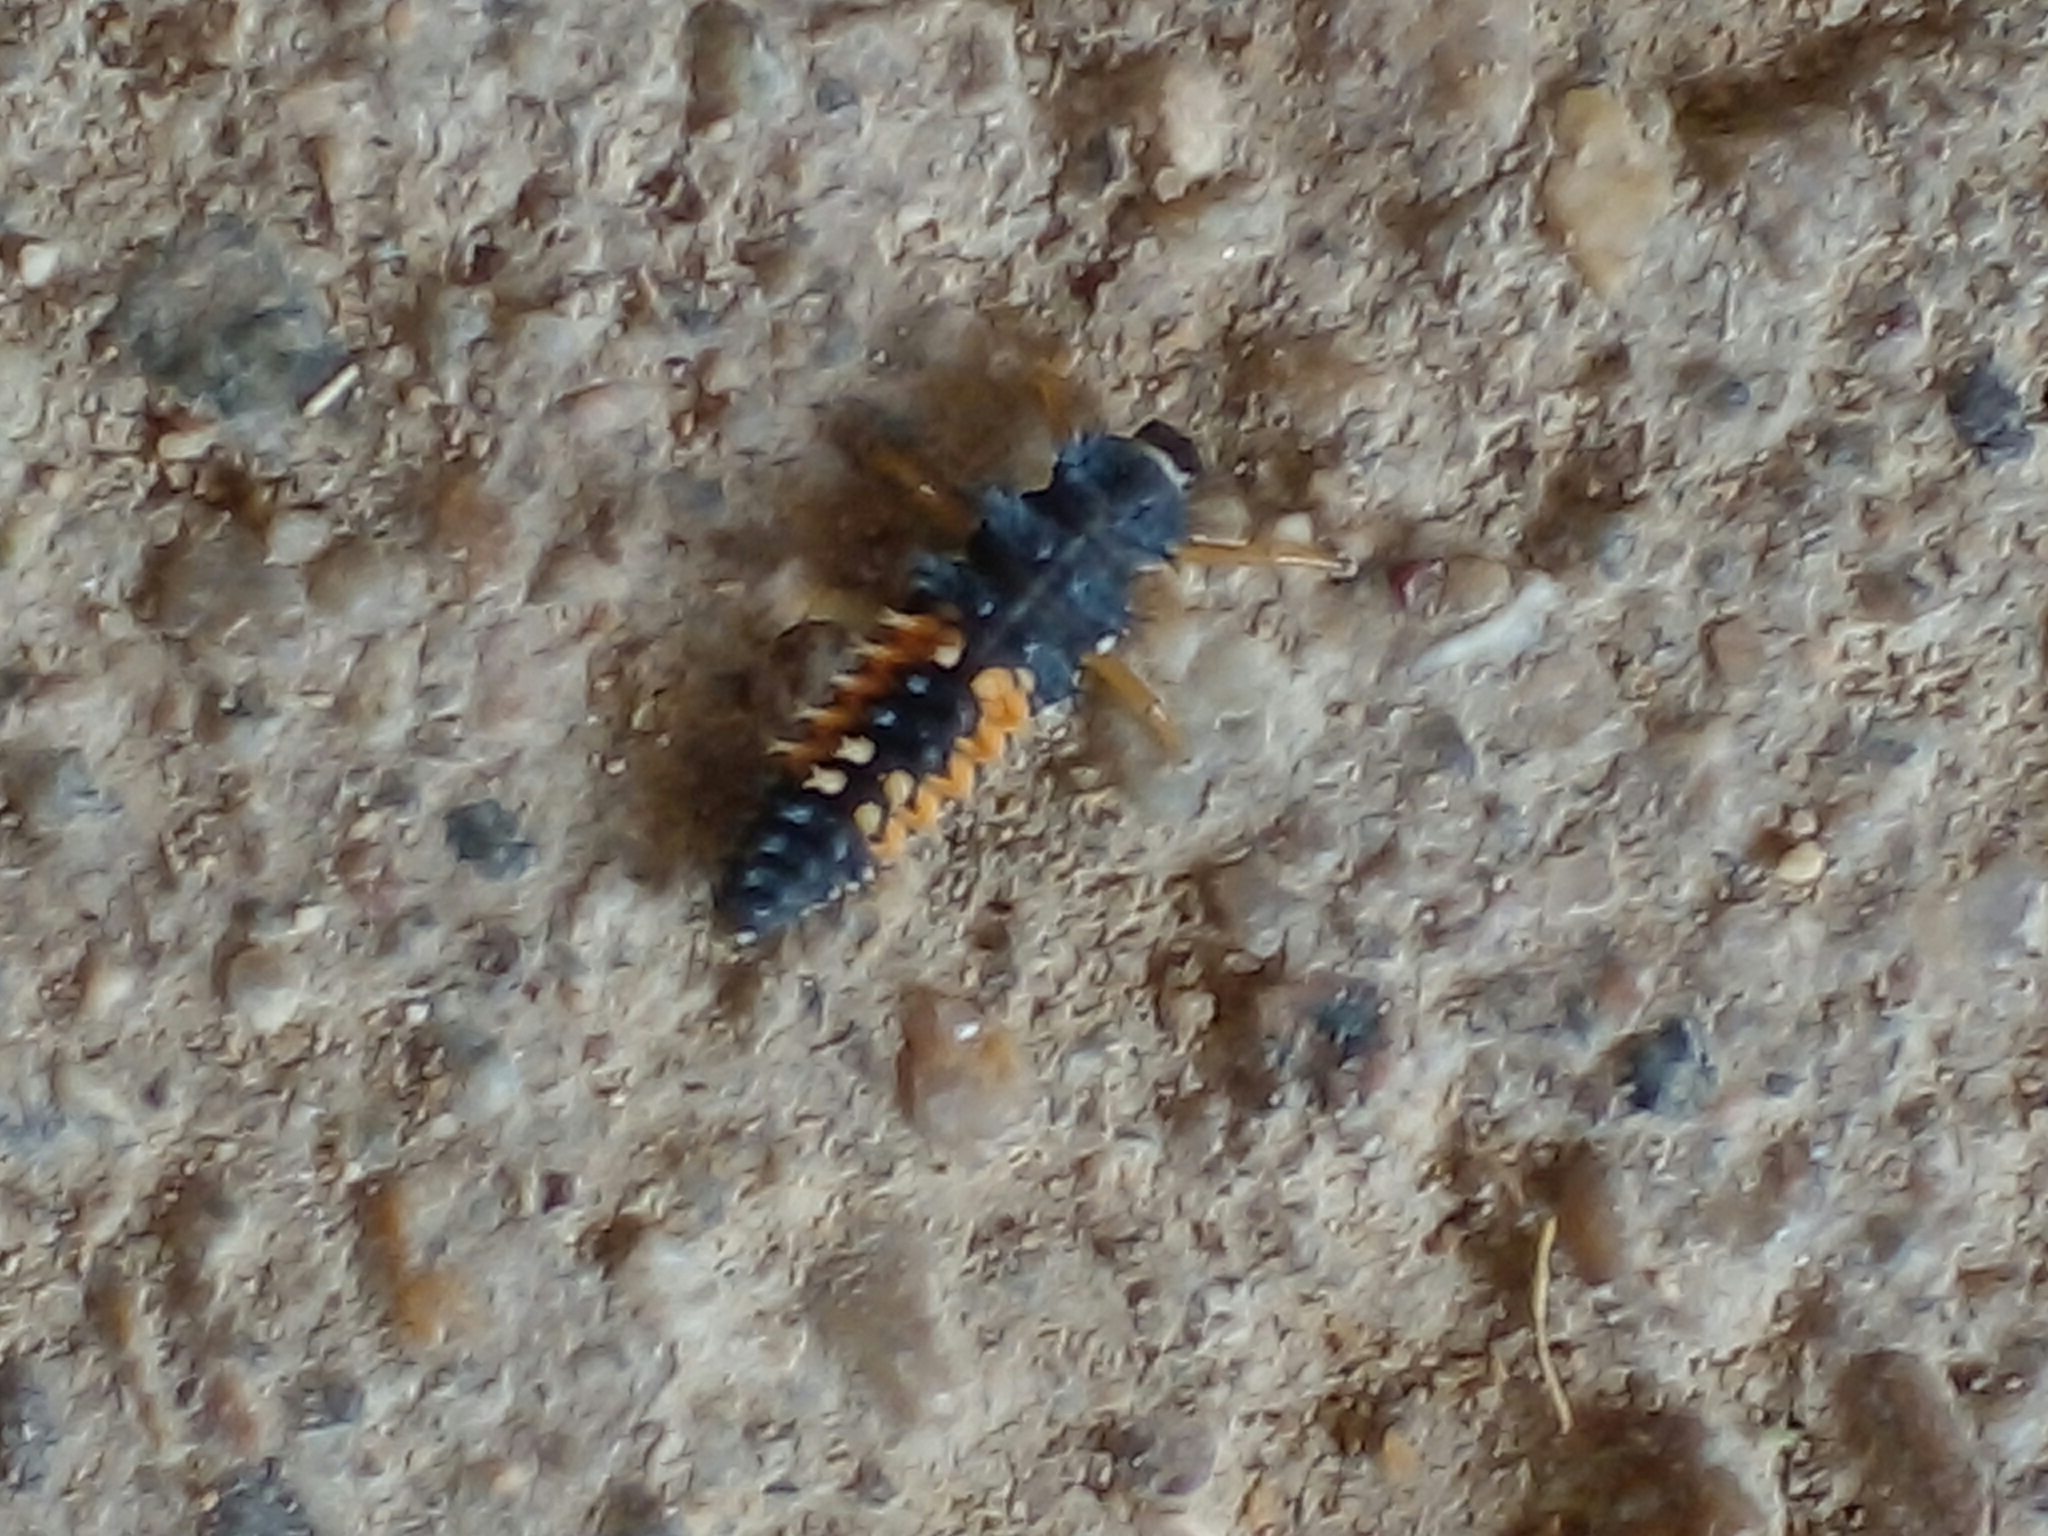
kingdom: Animalia
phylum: Arthropoda
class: Insecta
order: Coleoptera
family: Coccinellidae
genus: Harmonia
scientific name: Harmonia axyridis
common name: Harlequin ladybird
